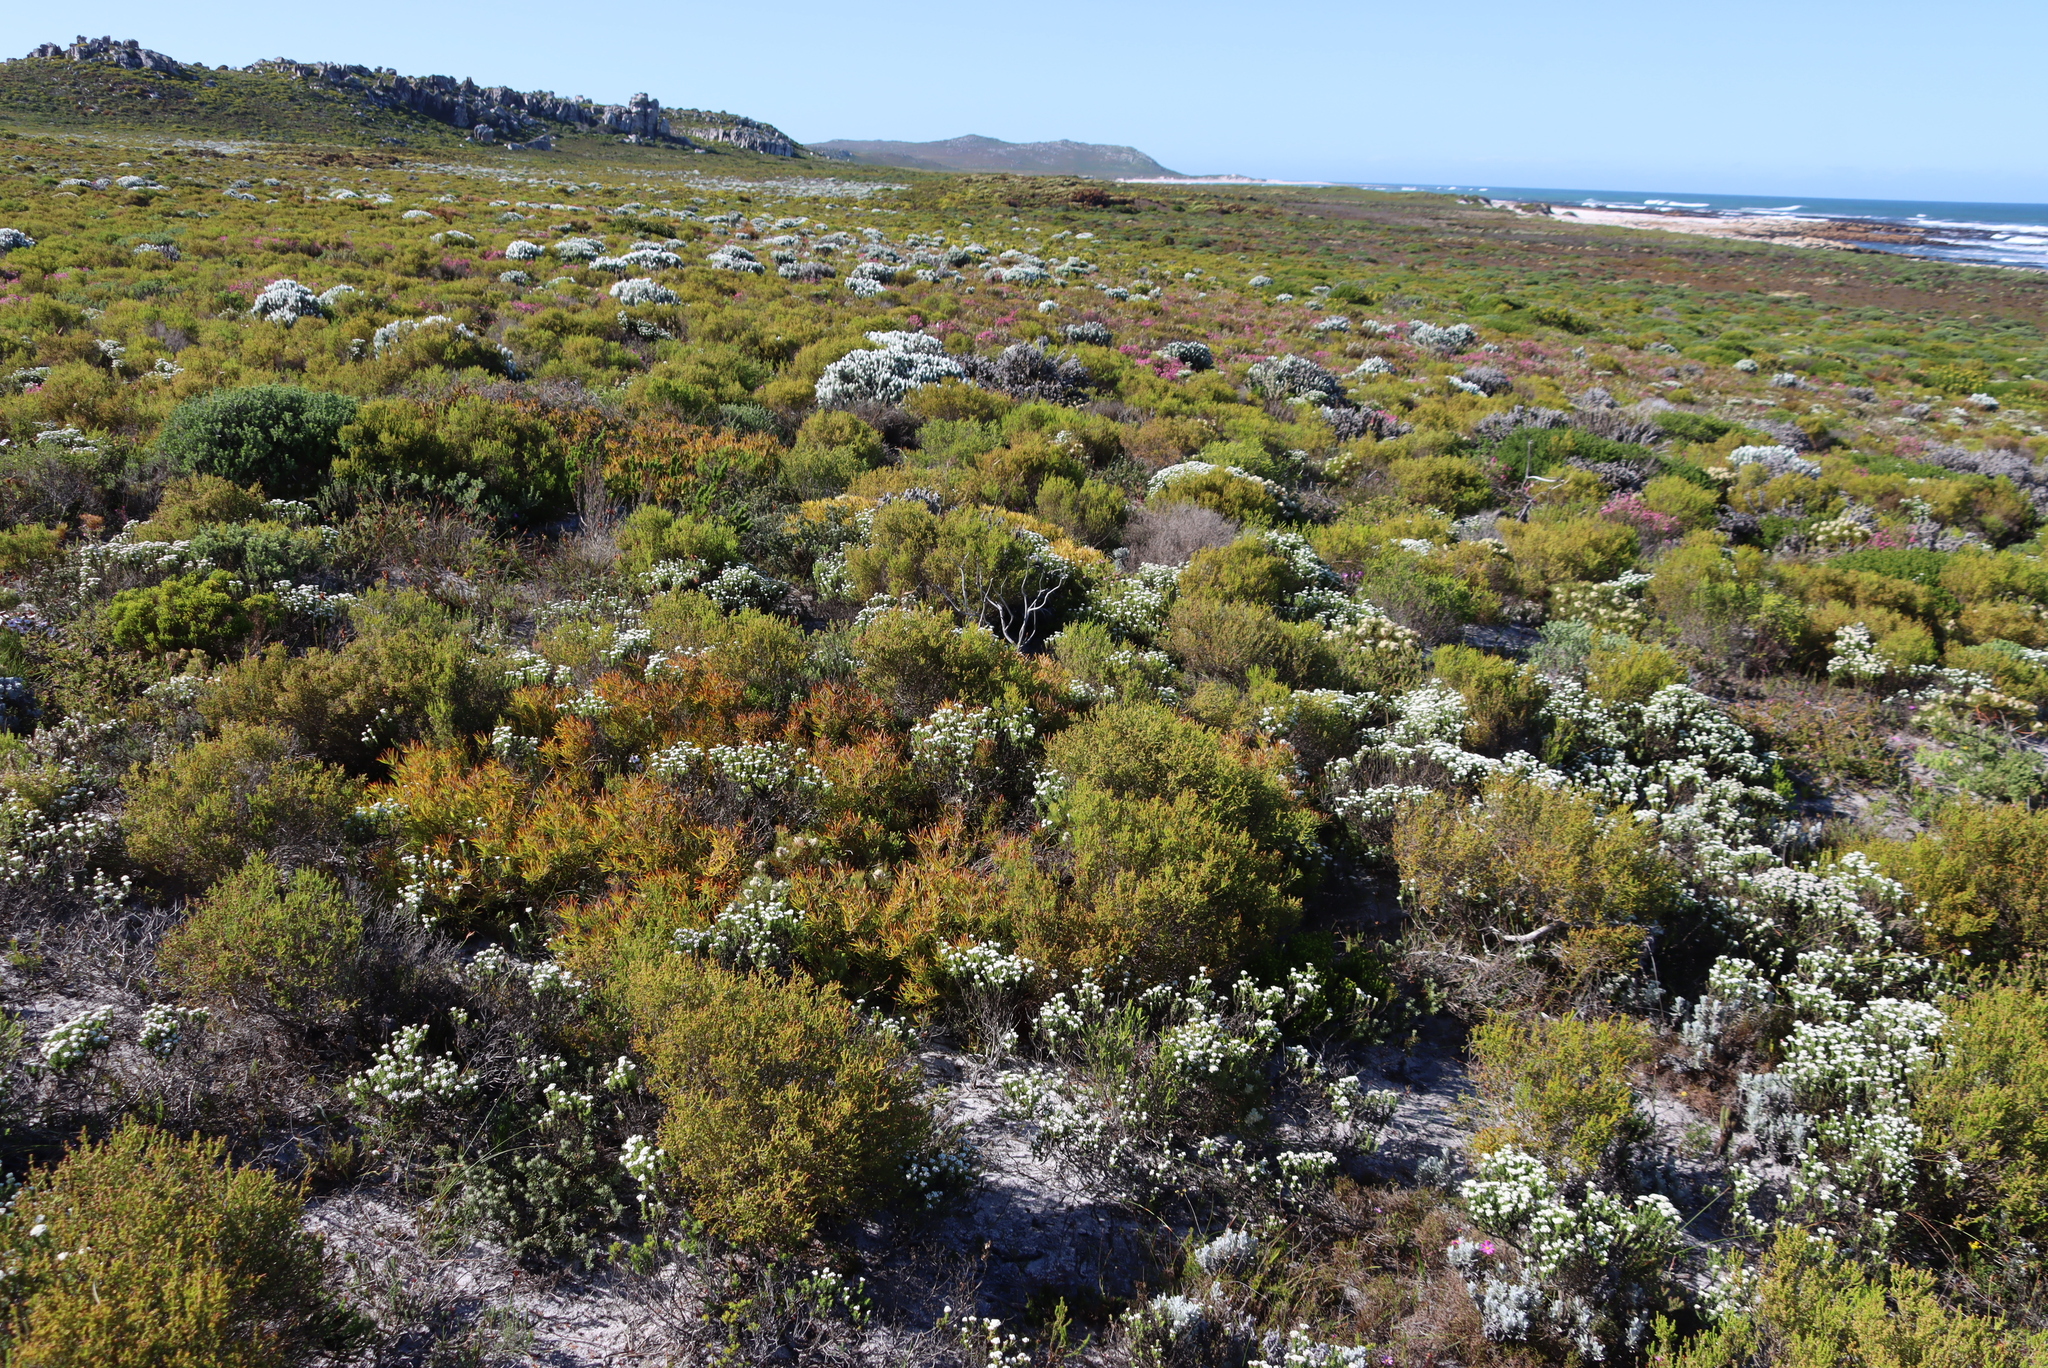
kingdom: Plantae
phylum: Tracheophyta
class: Magnoliopsida
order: Proteales
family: Proteaceae
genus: Leucadendron
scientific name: Leucadendron salignum
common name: Common sunshine conebush
